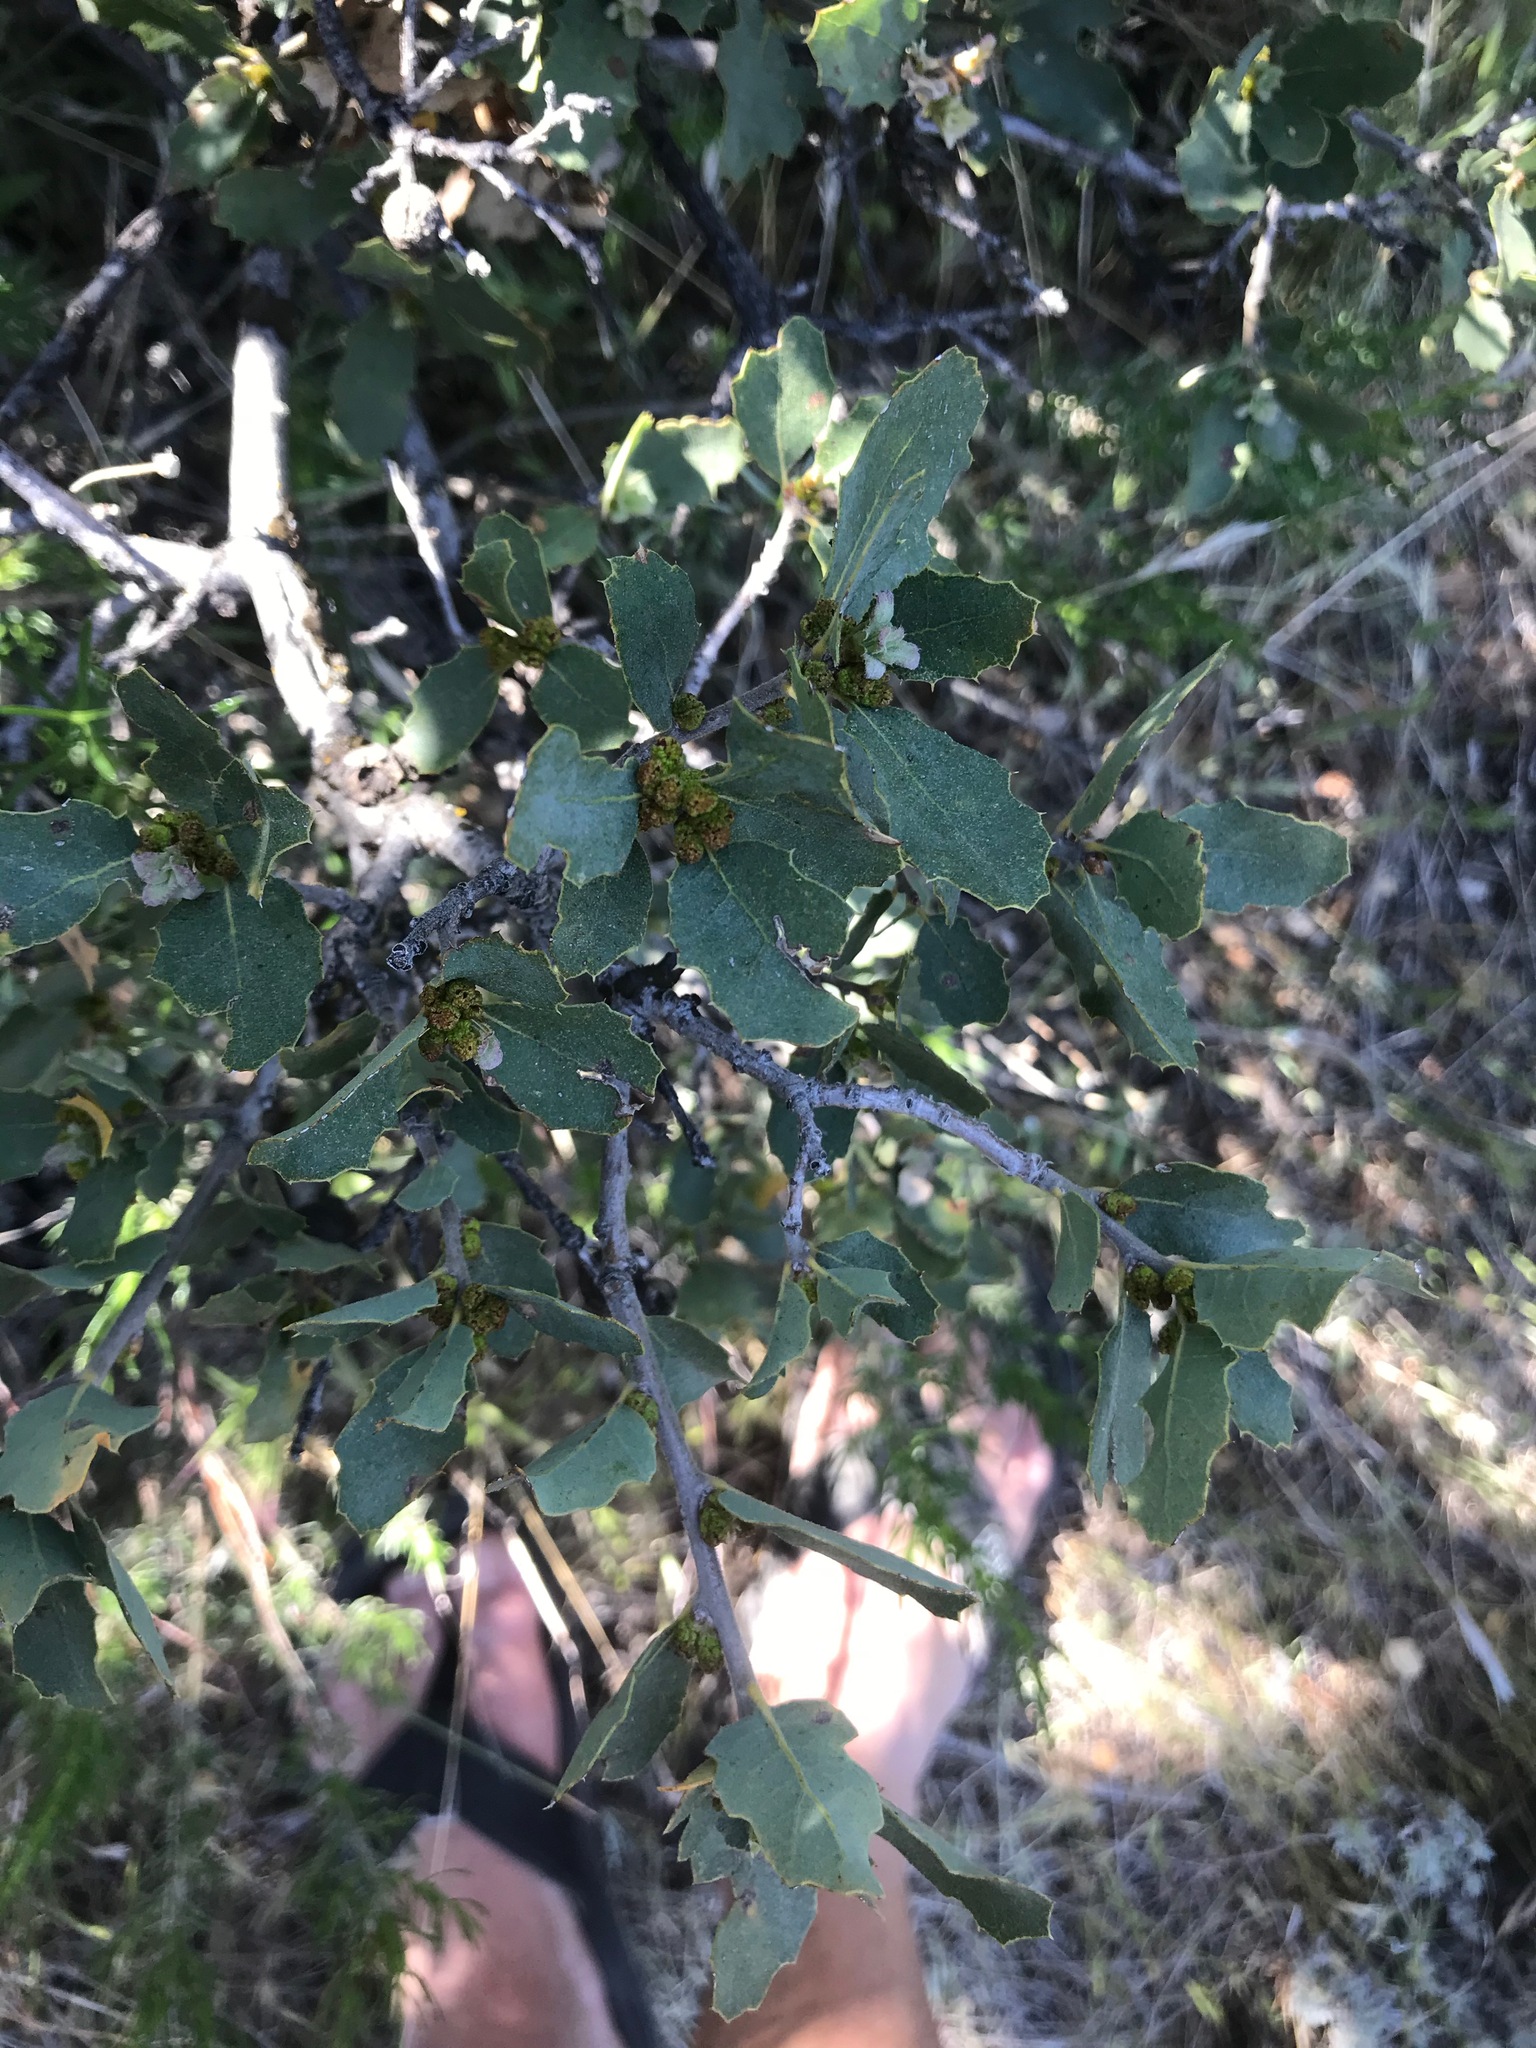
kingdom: Plantae
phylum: Tracheophyta
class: Magnoliopsida
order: Fagales
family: Fagaceae
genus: Quercus
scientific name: Quercus john-tuckeri
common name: Tucker's oak
